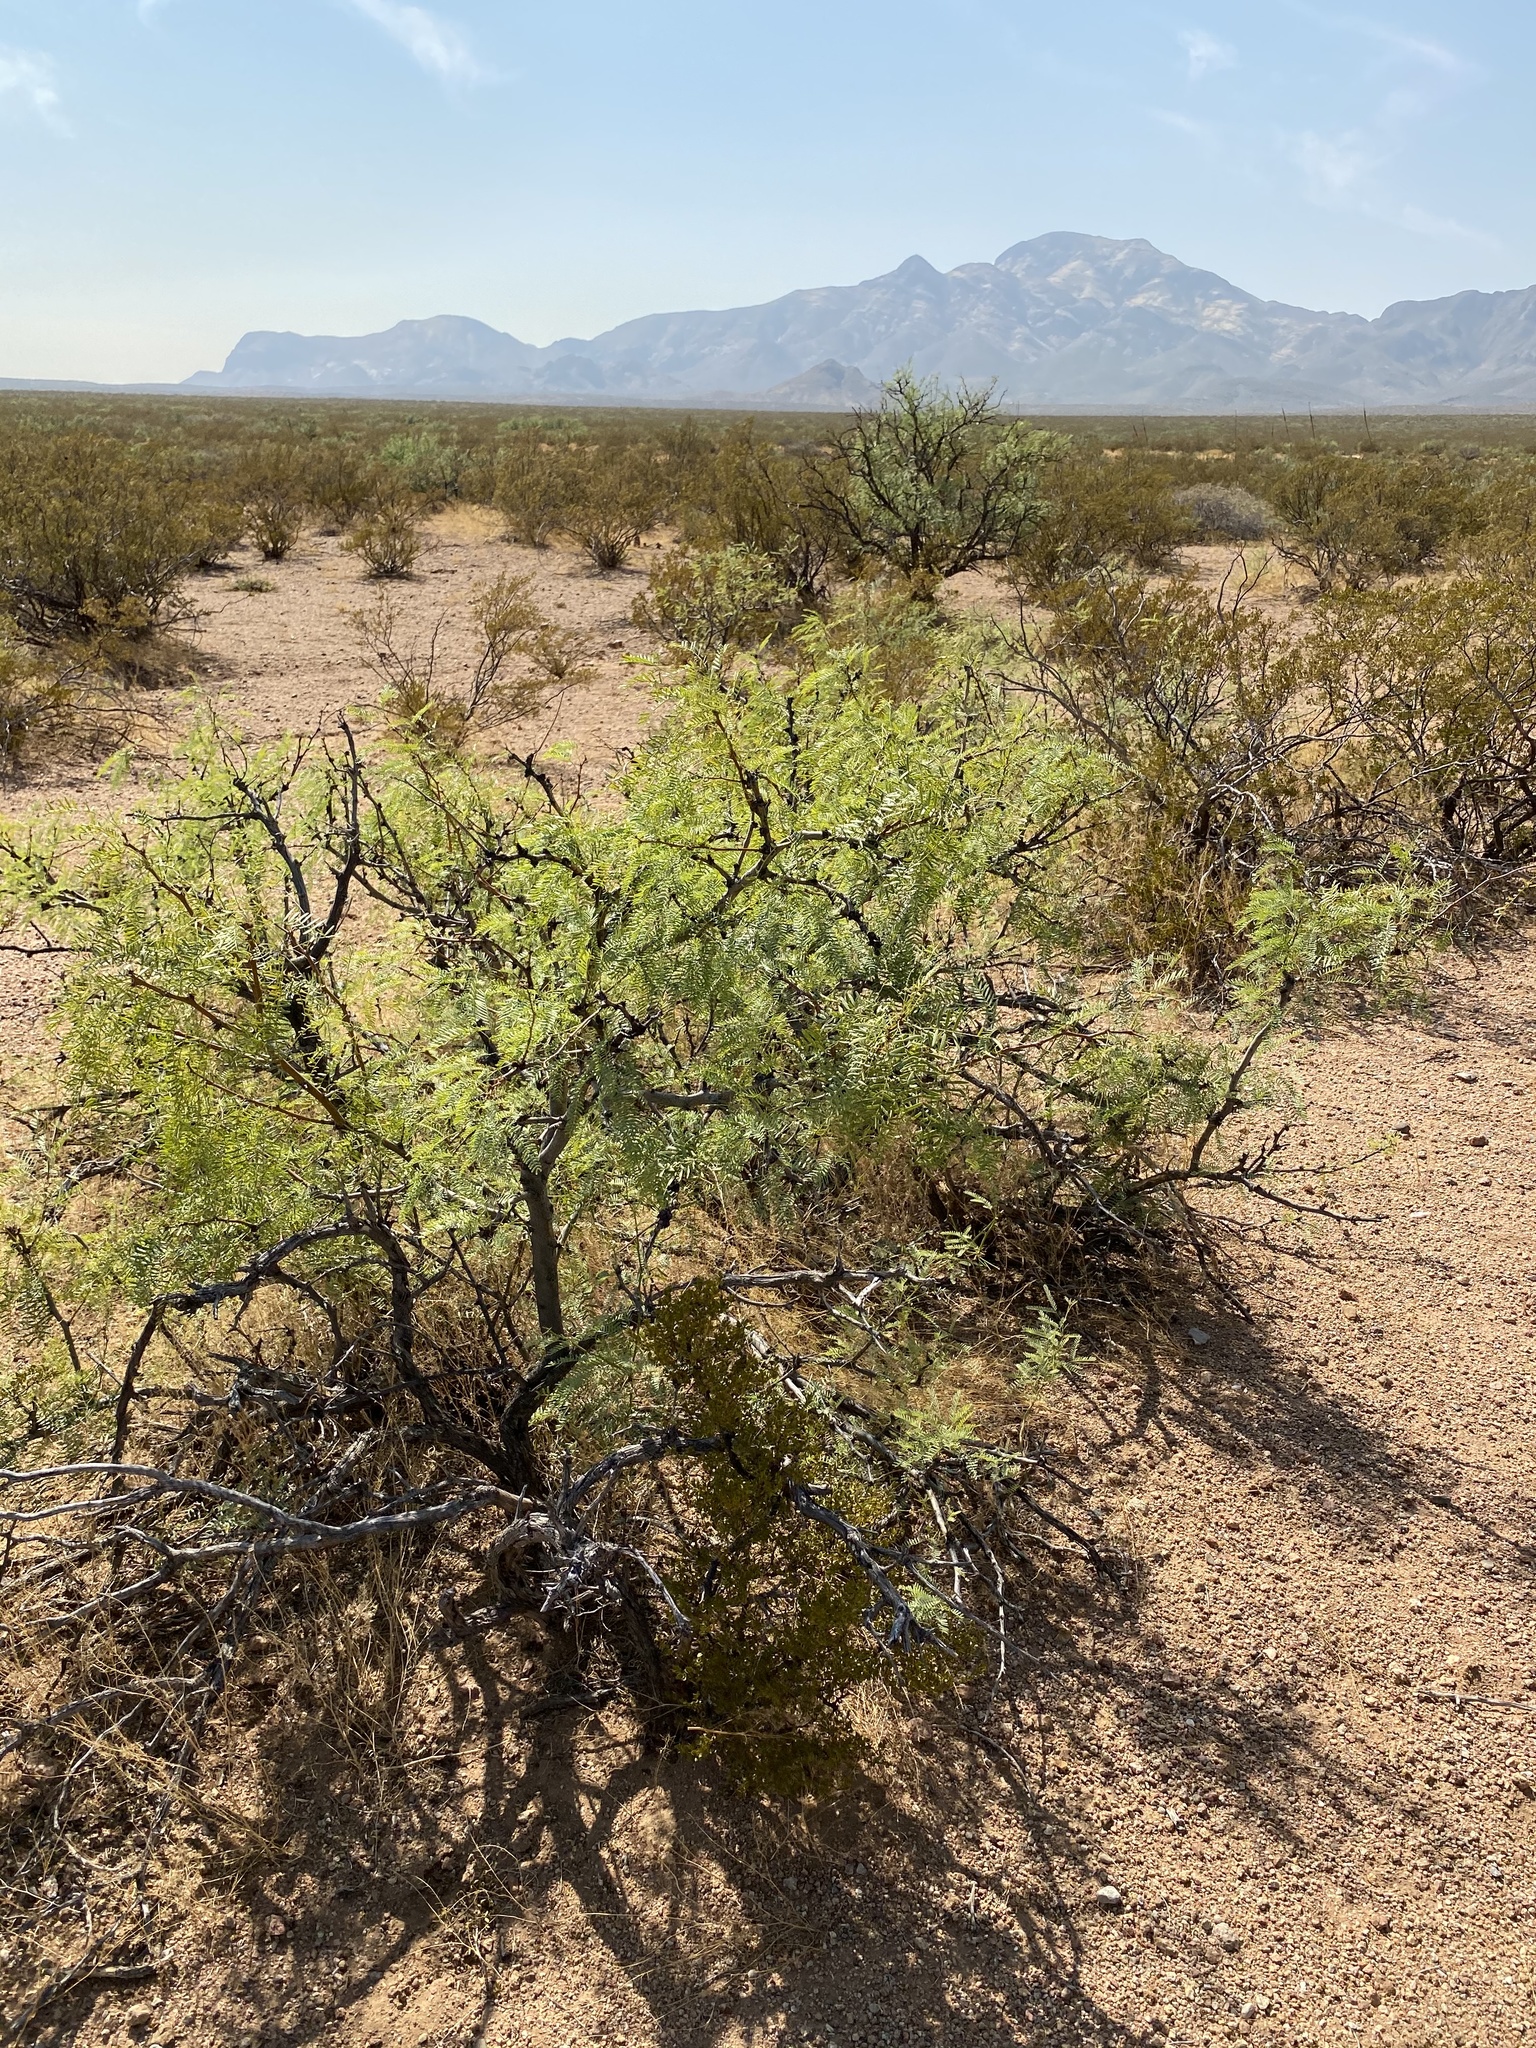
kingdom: Plantae
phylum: Tracheophyta
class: Magnoliopsida
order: Fabales
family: Fabaceae
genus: Prosopis
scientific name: Prosopis glandulosa
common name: Honey mesquite
